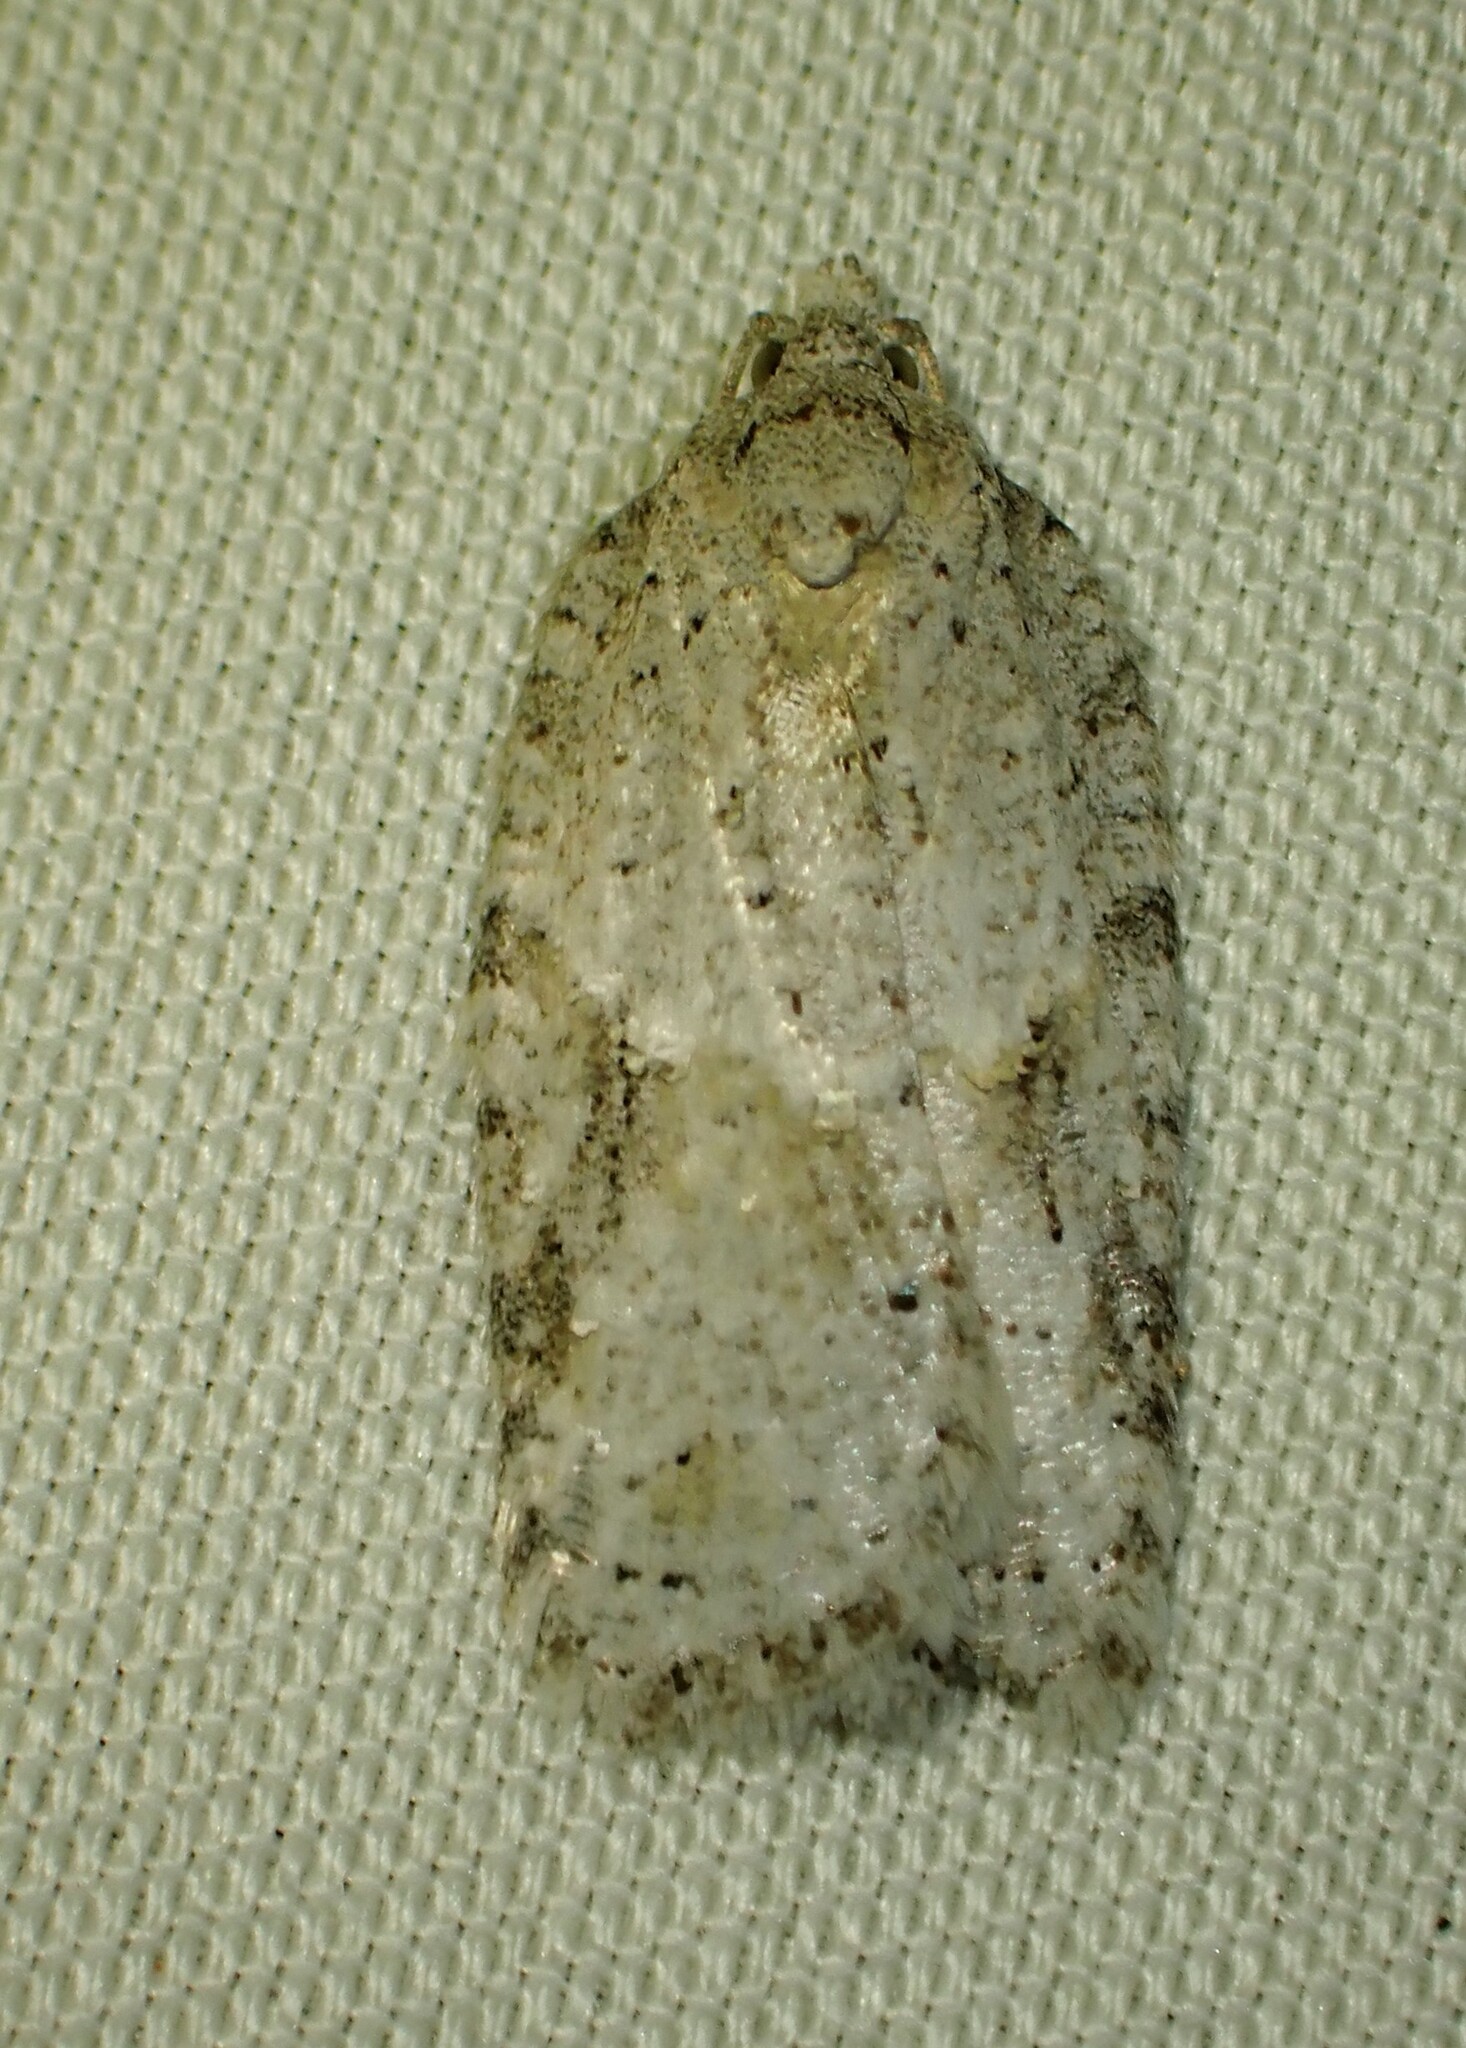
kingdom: Animalia
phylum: Arthropoda
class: Insecta
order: Lepidoptera
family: Tortricidae
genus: Acleris
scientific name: Acleris placidana
